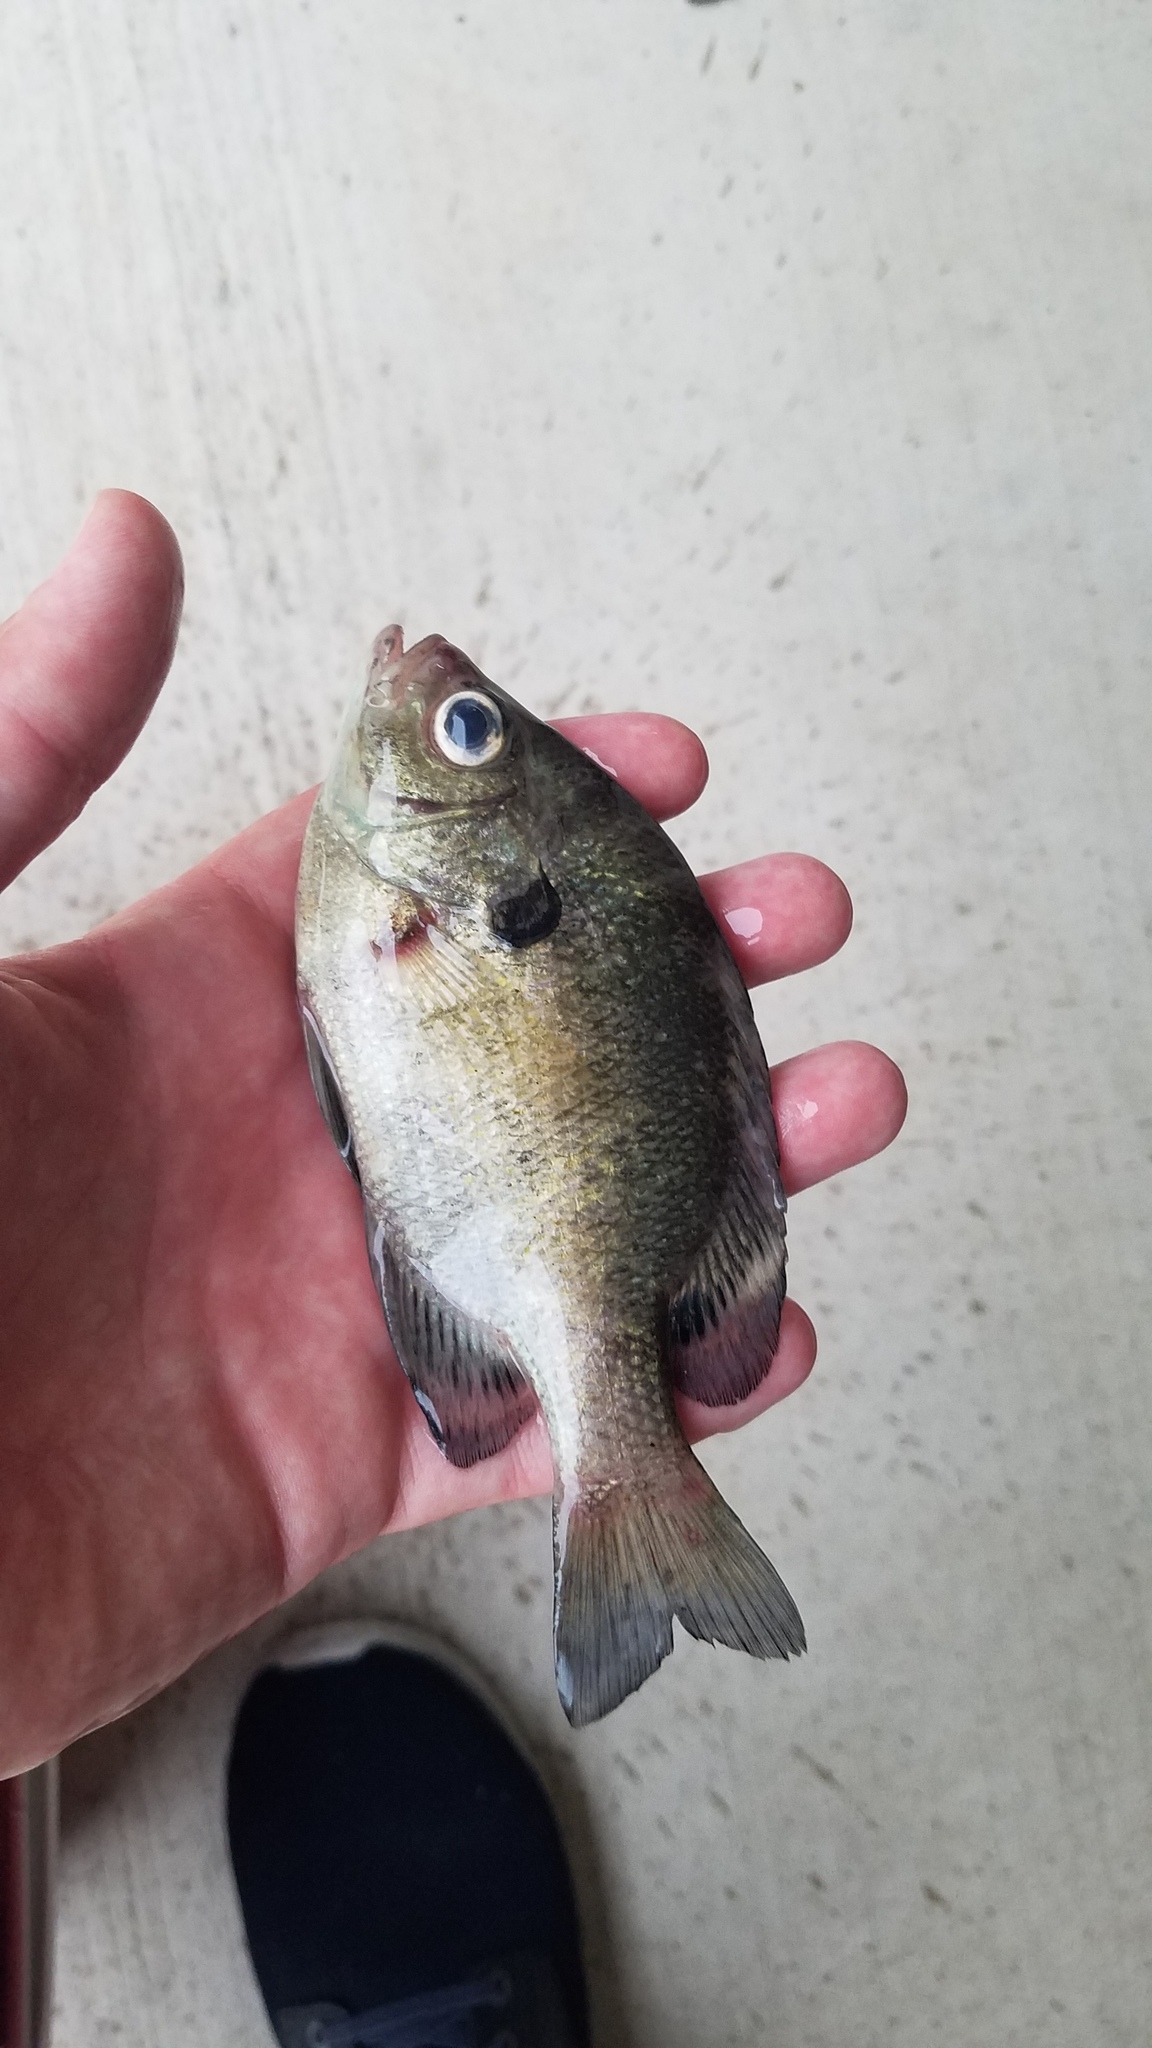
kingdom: Animalia
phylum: Chordata
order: Perciformes
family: Centrarchidae
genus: Lepomis
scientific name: Lepomis macrochirus
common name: Bluegill
